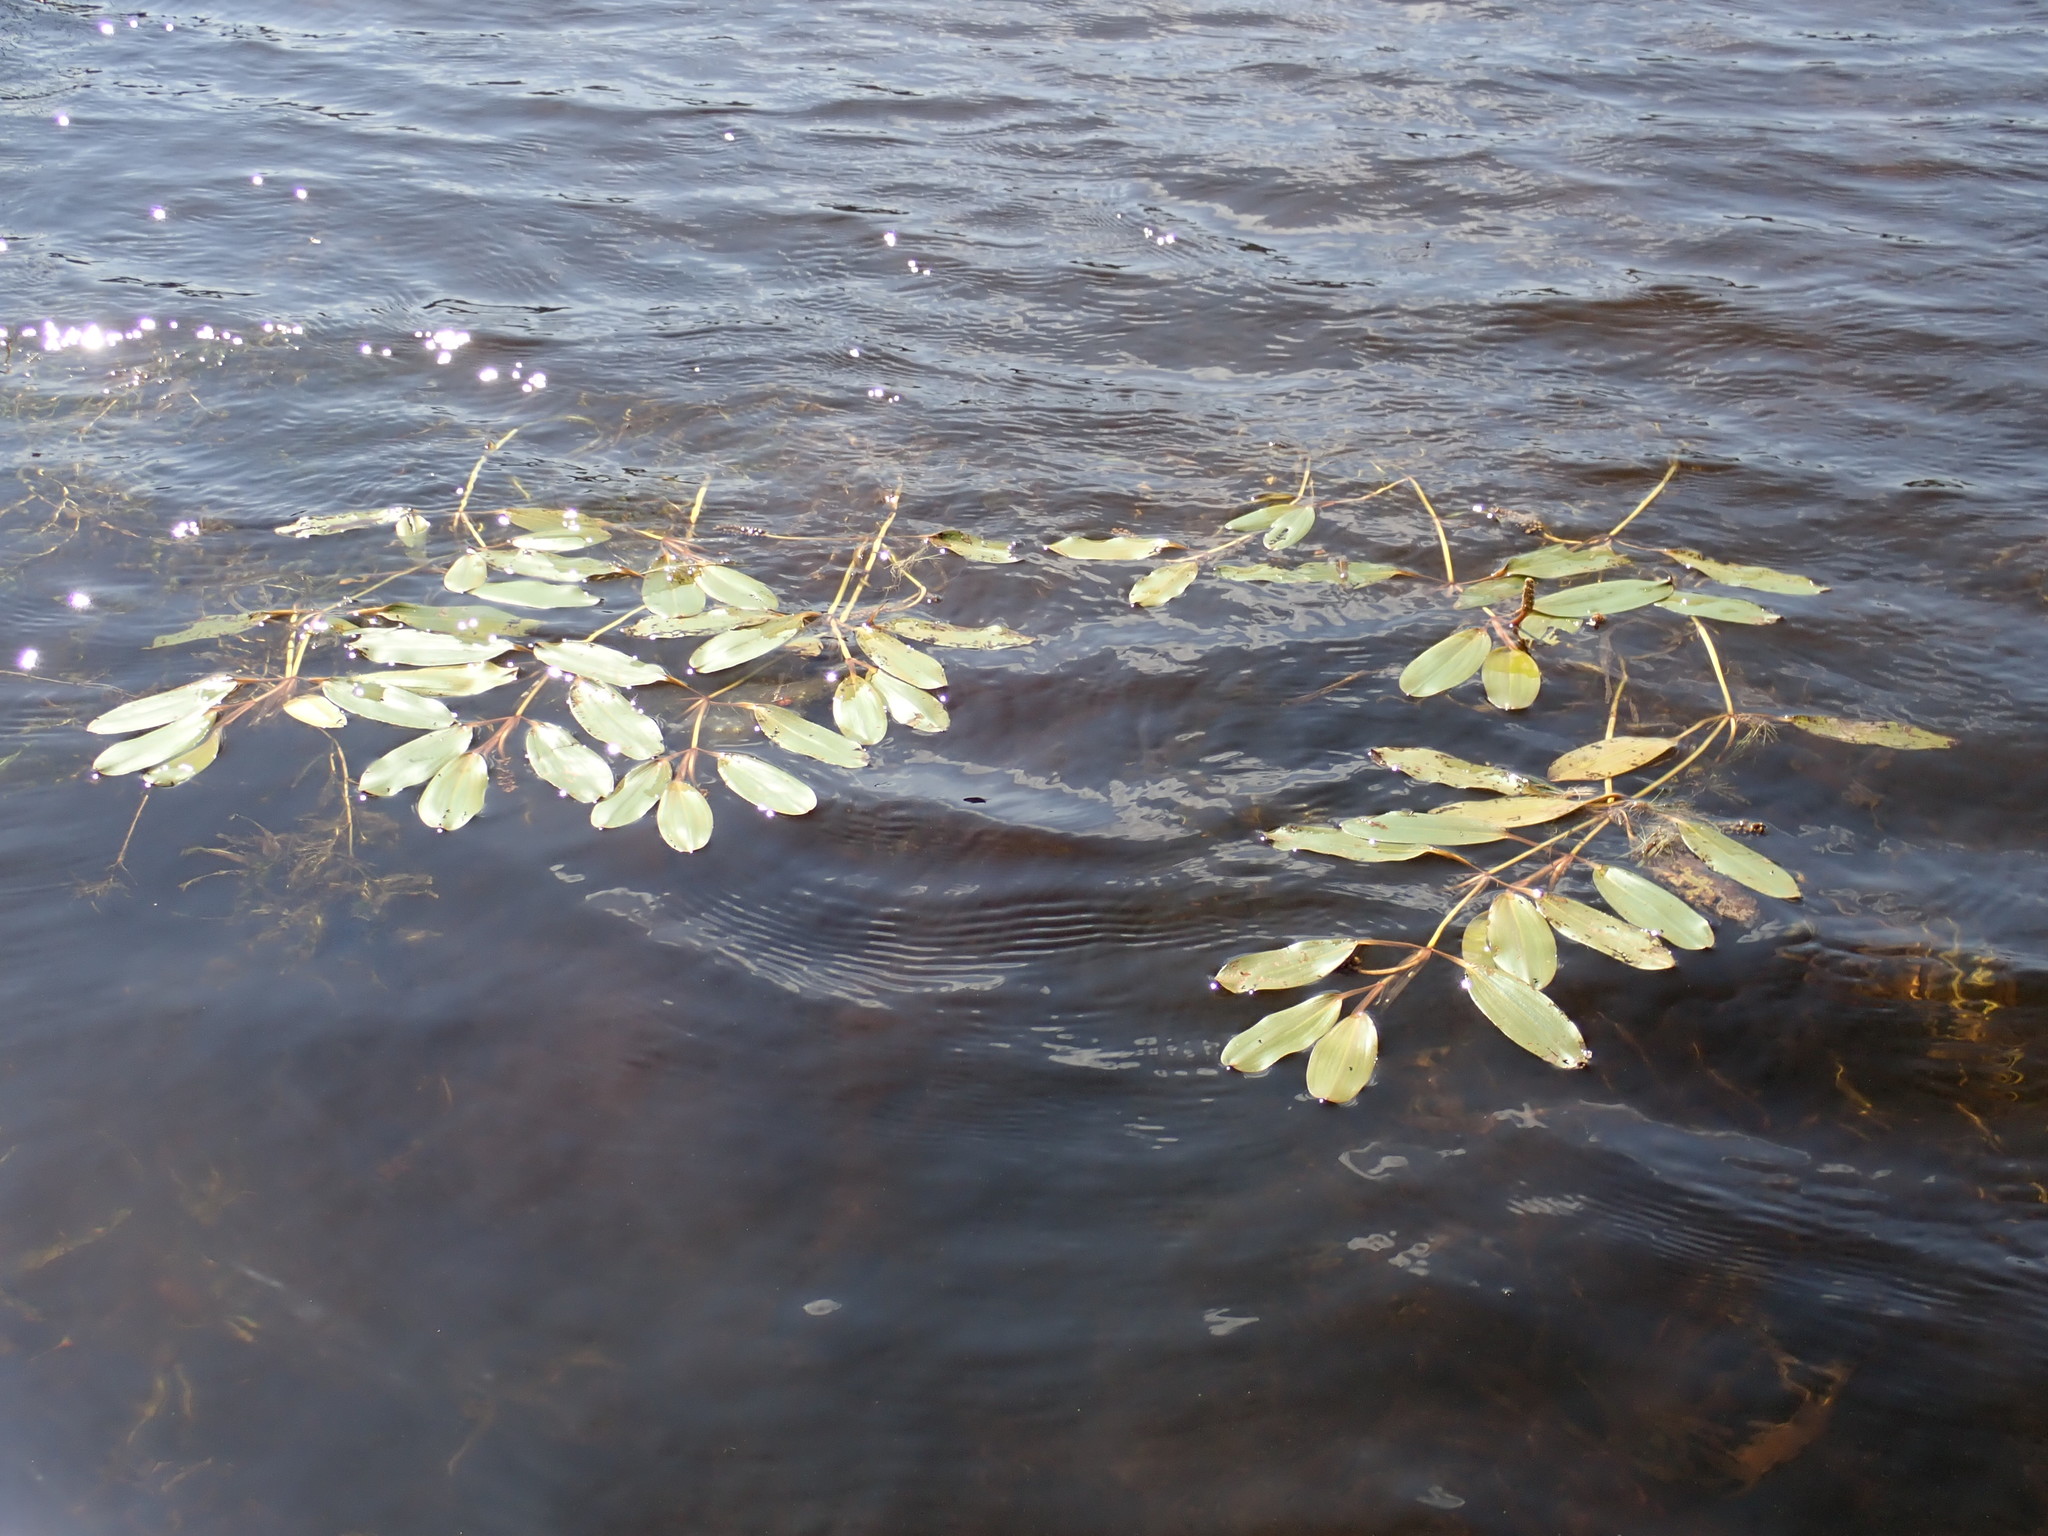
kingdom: Plantae
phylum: Tracheophyta
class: Liliopsida
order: Alismatales
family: Potamogetonaceae
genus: Potamogeton
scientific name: Potamogeton epihydrus
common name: American pondweed
